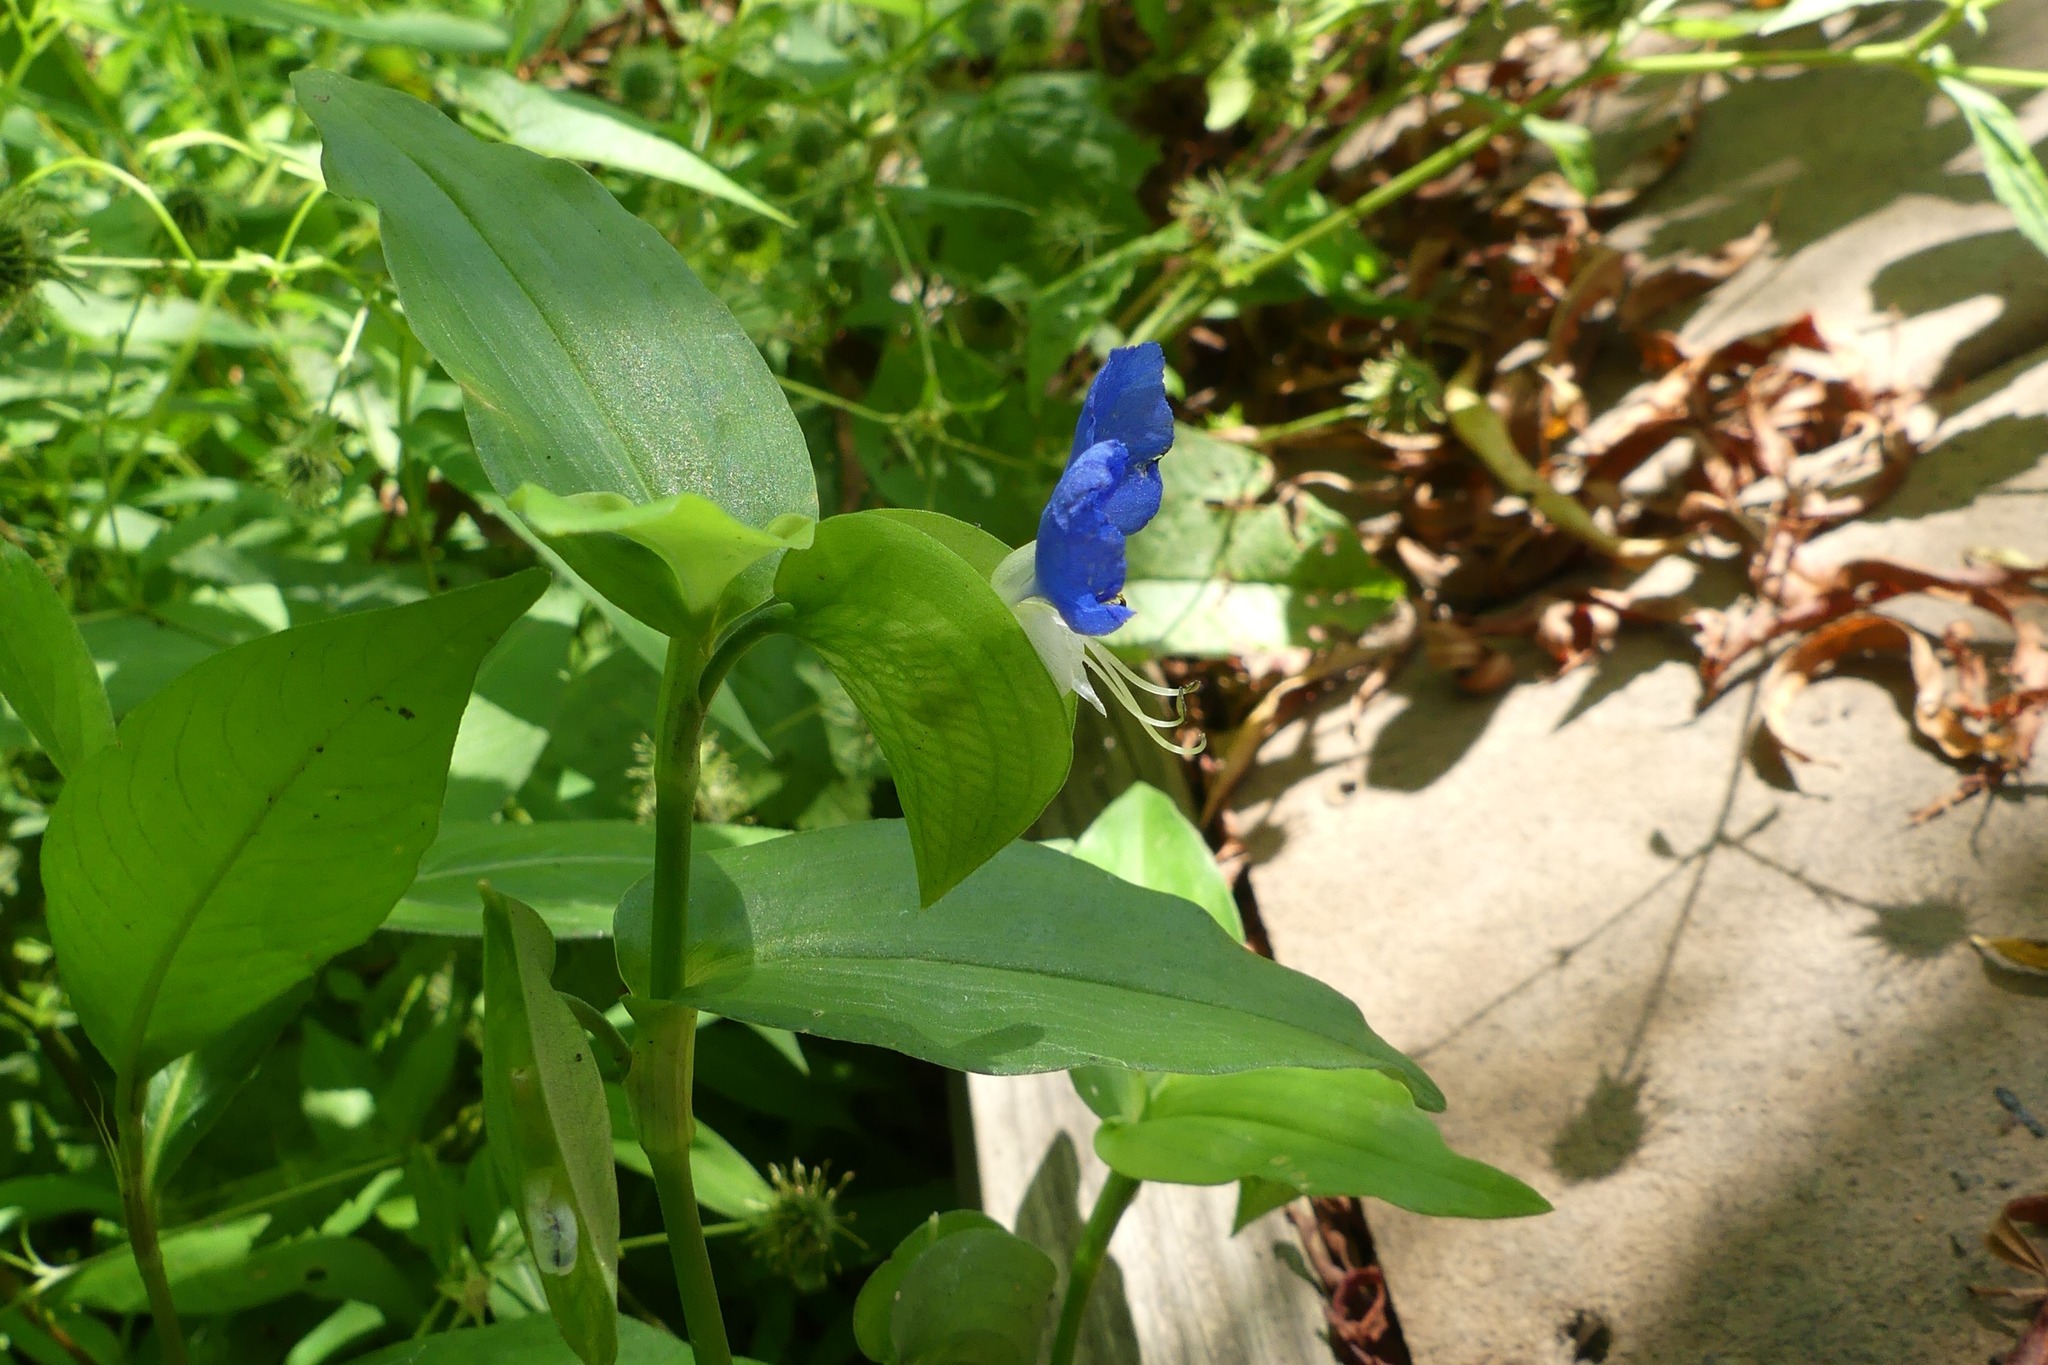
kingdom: Plantae
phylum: Tracheophyta
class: Liliopsida
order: Commelinales
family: Commelinaceae
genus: Commelina
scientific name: Commelina communis
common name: Asiatic dayflower
